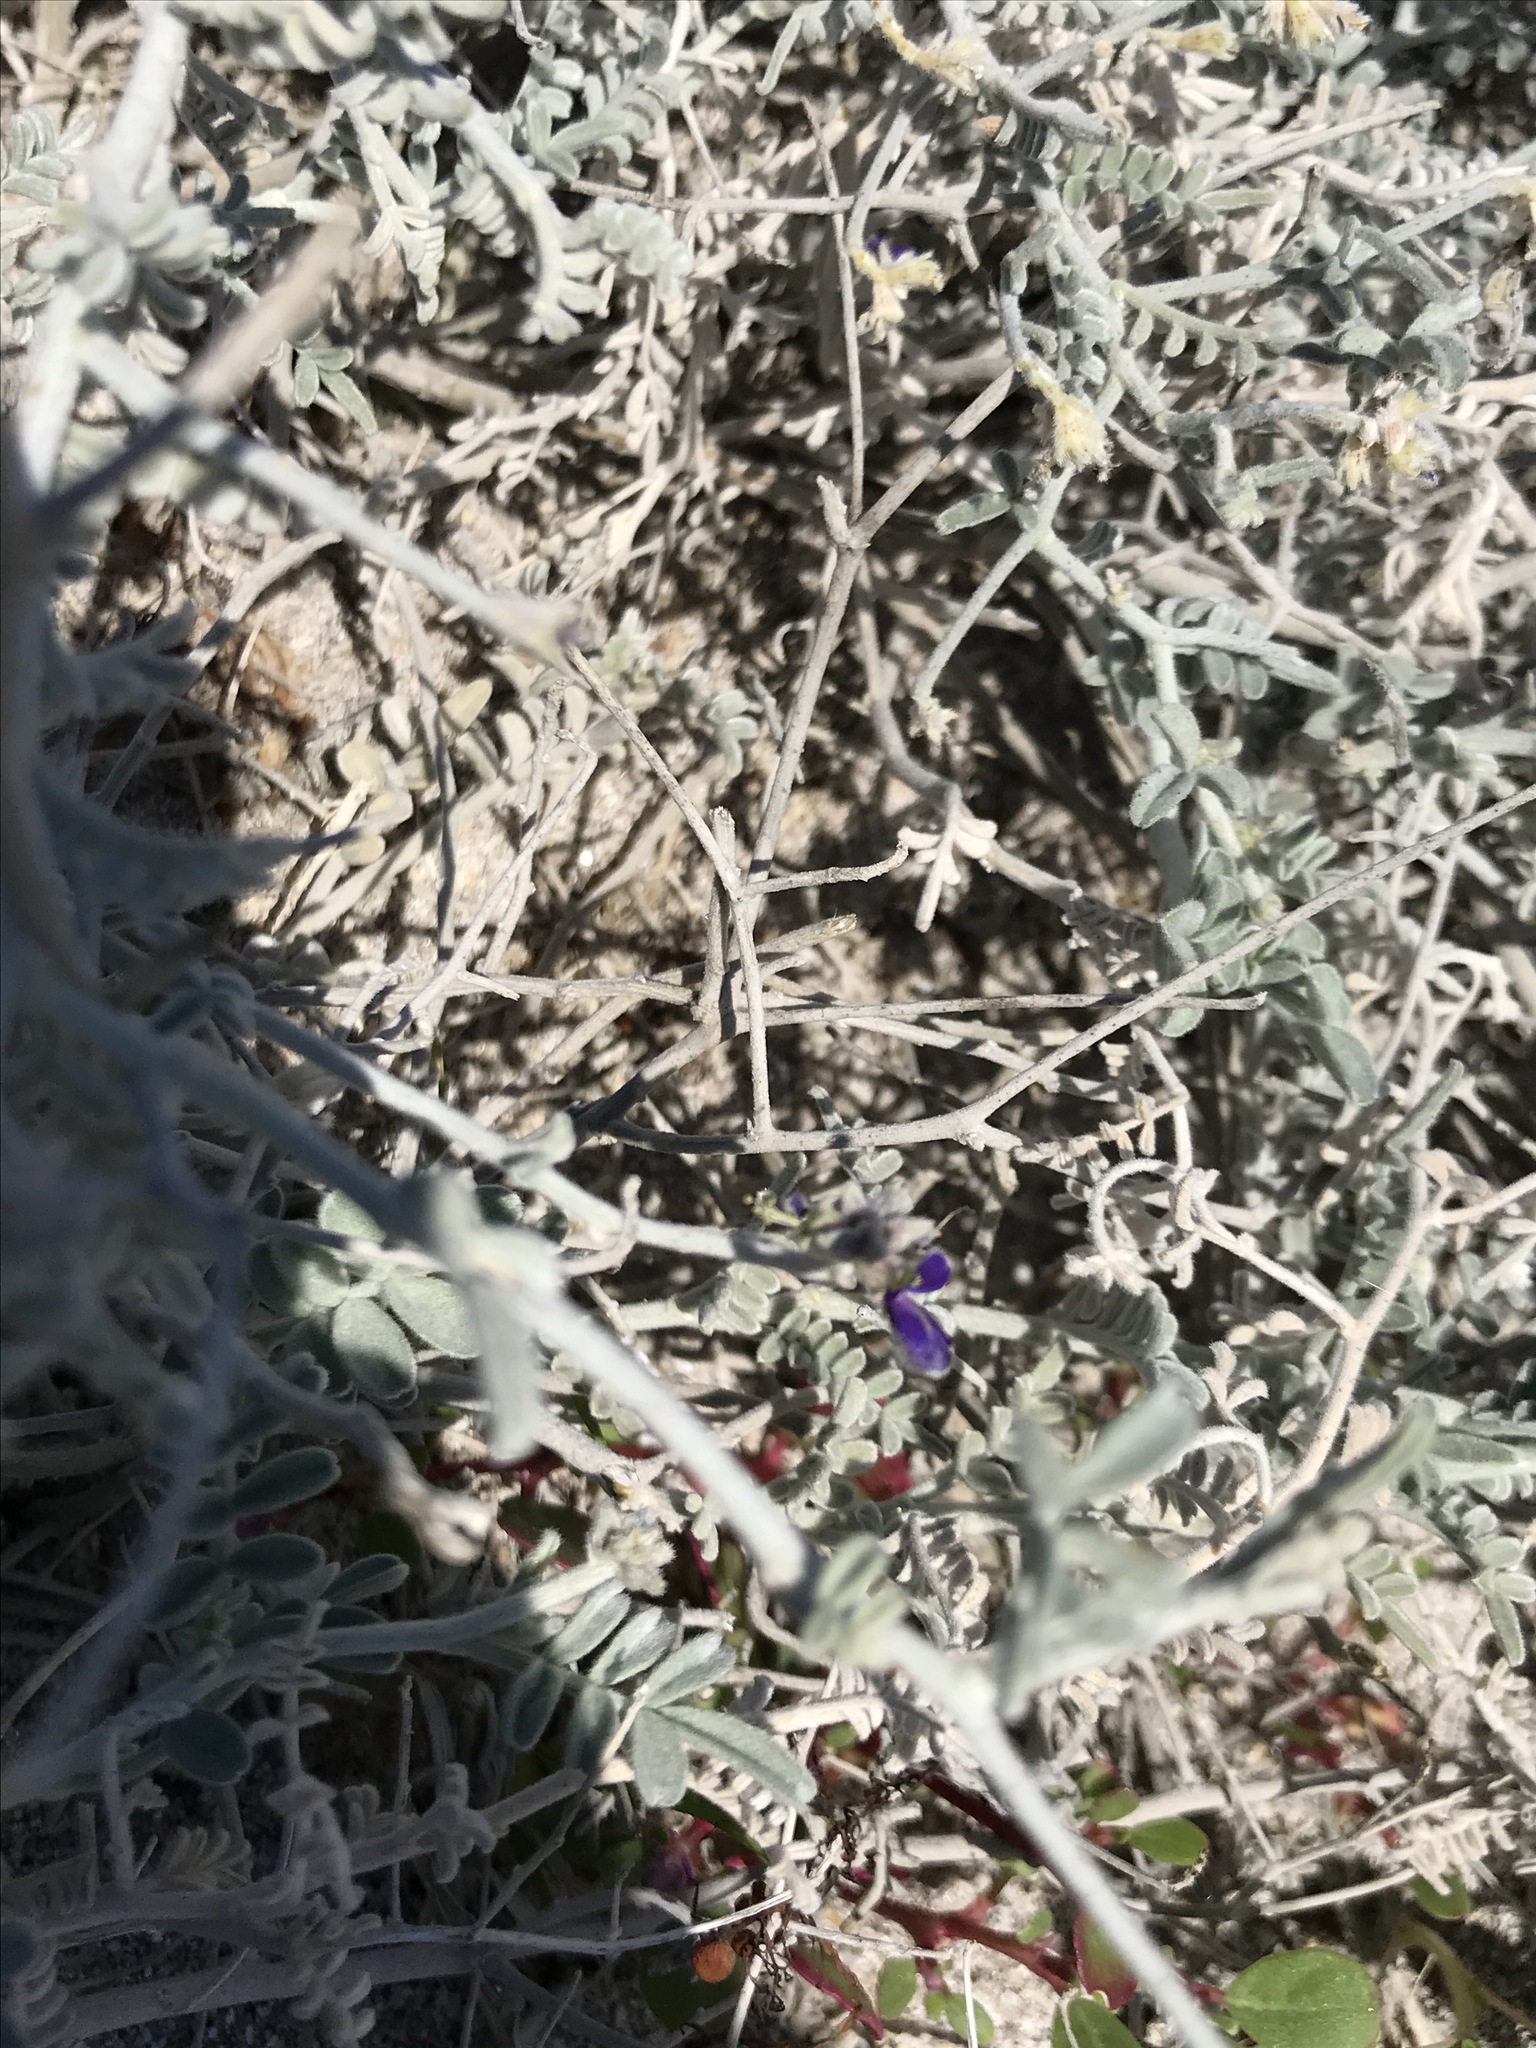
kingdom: Plantae
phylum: Tracheophyta
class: Magnoliopsida
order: Fabales
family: Fabaceae
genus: Psorothamnus
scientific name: Psorothamnus emoryi
